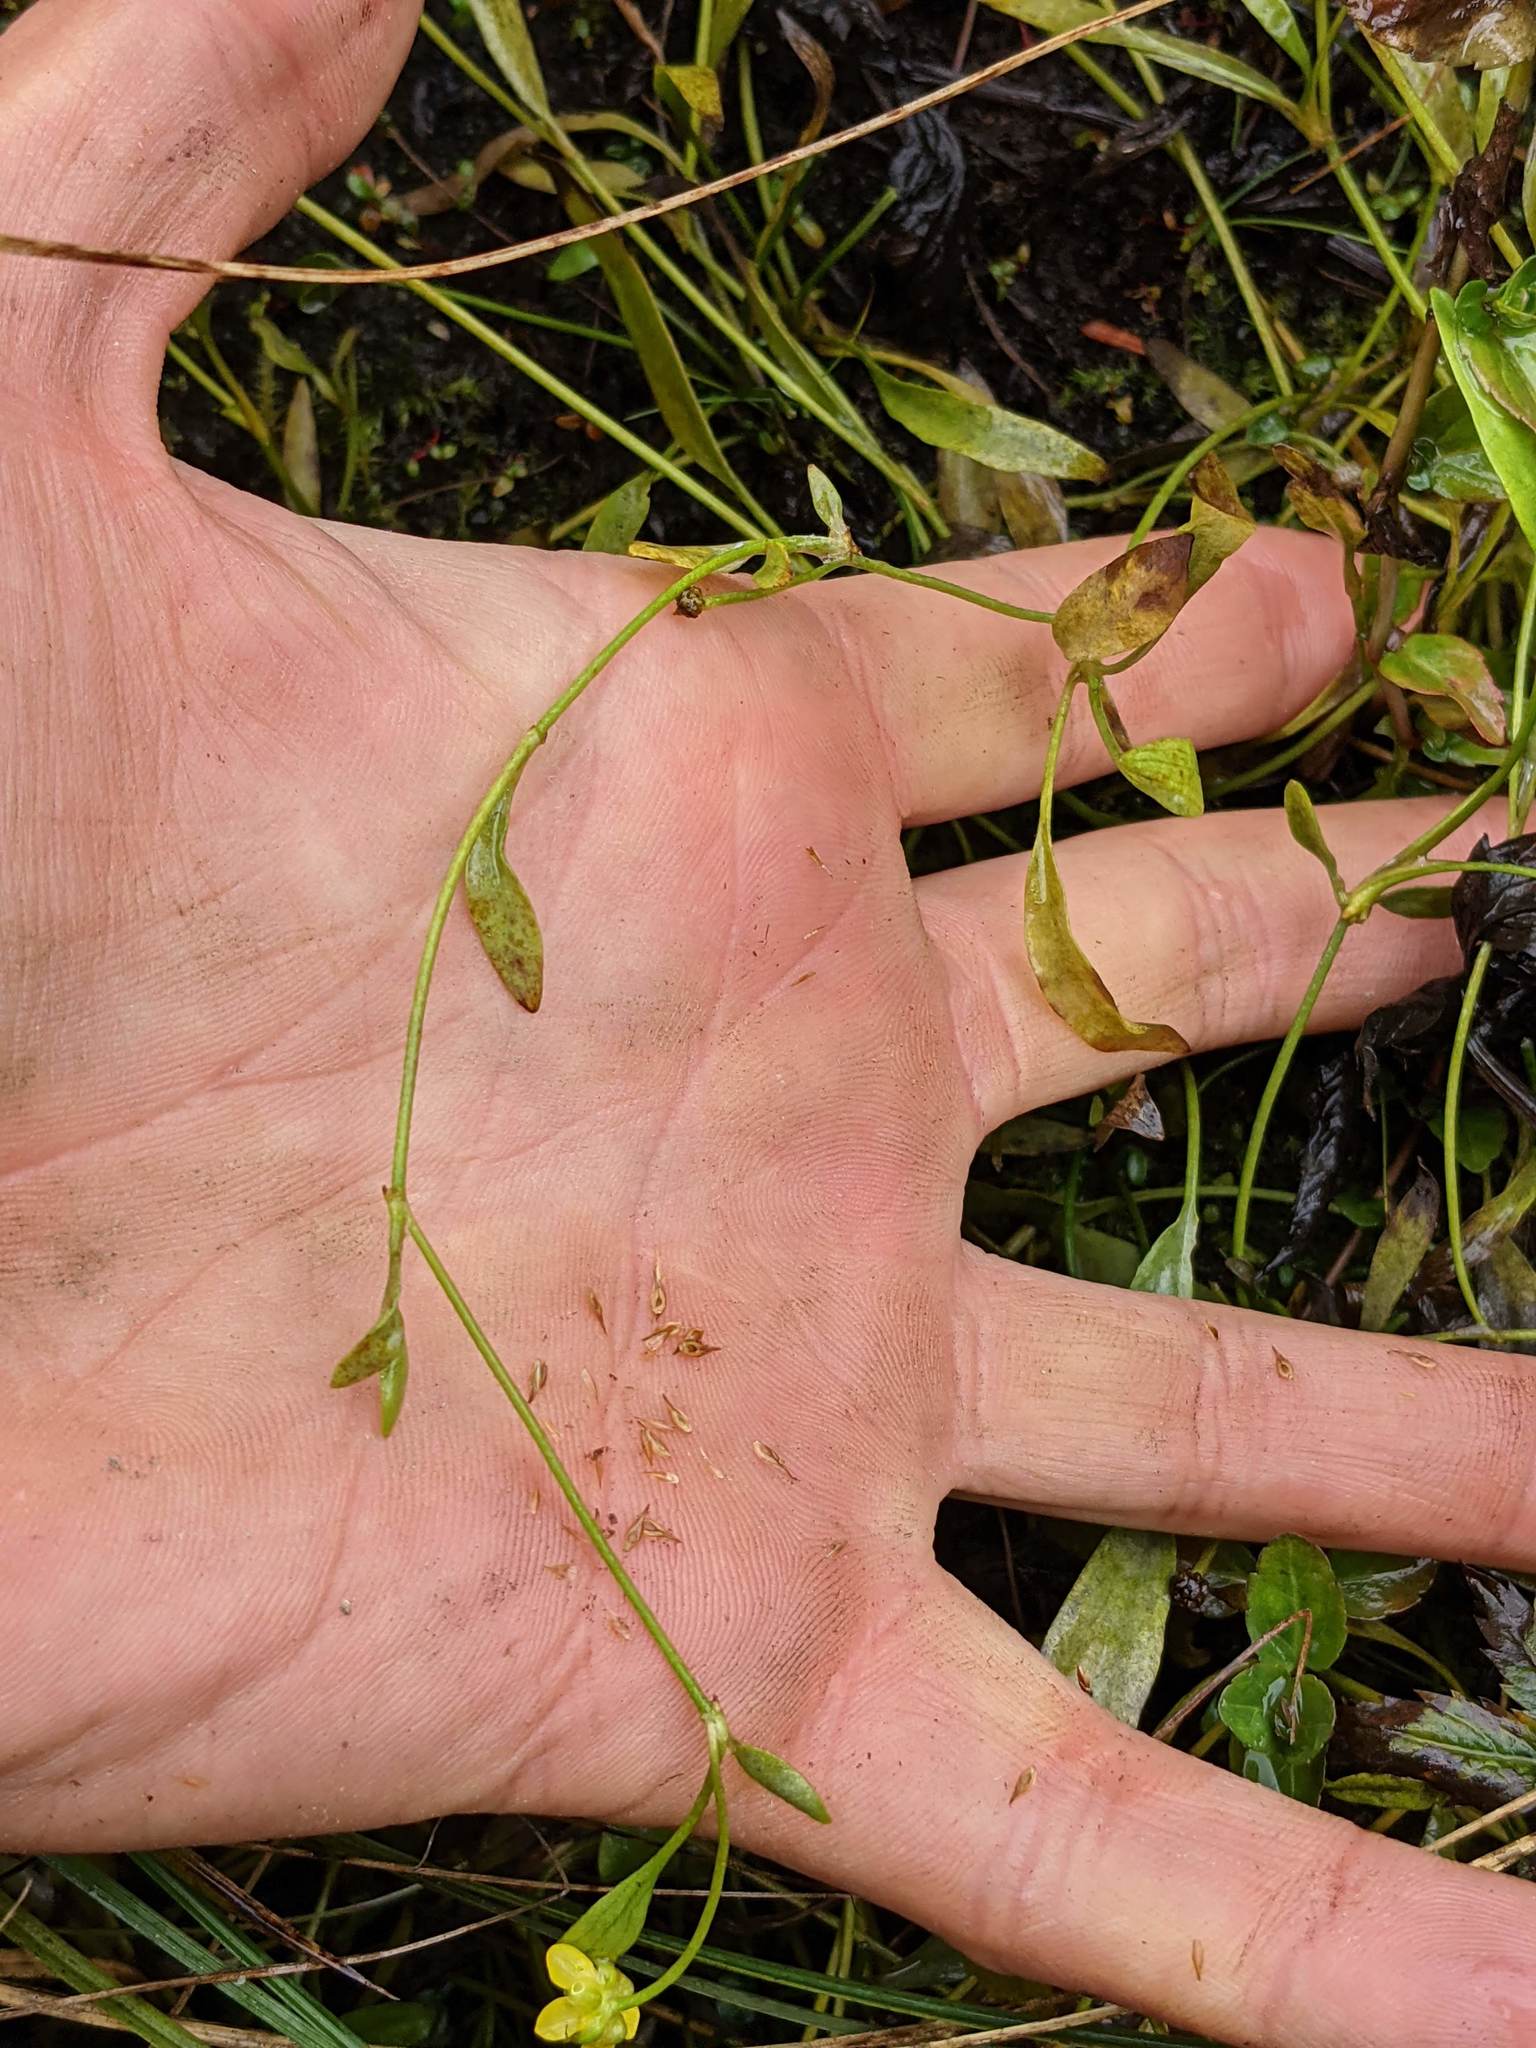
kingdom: Plantae
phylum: Tracheophyta
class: Magnoliopsida
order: Ranunculales
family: Ranunculaceae
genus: Ranunculus
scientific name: Ranunculus flammula
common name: Lesser spearwort
